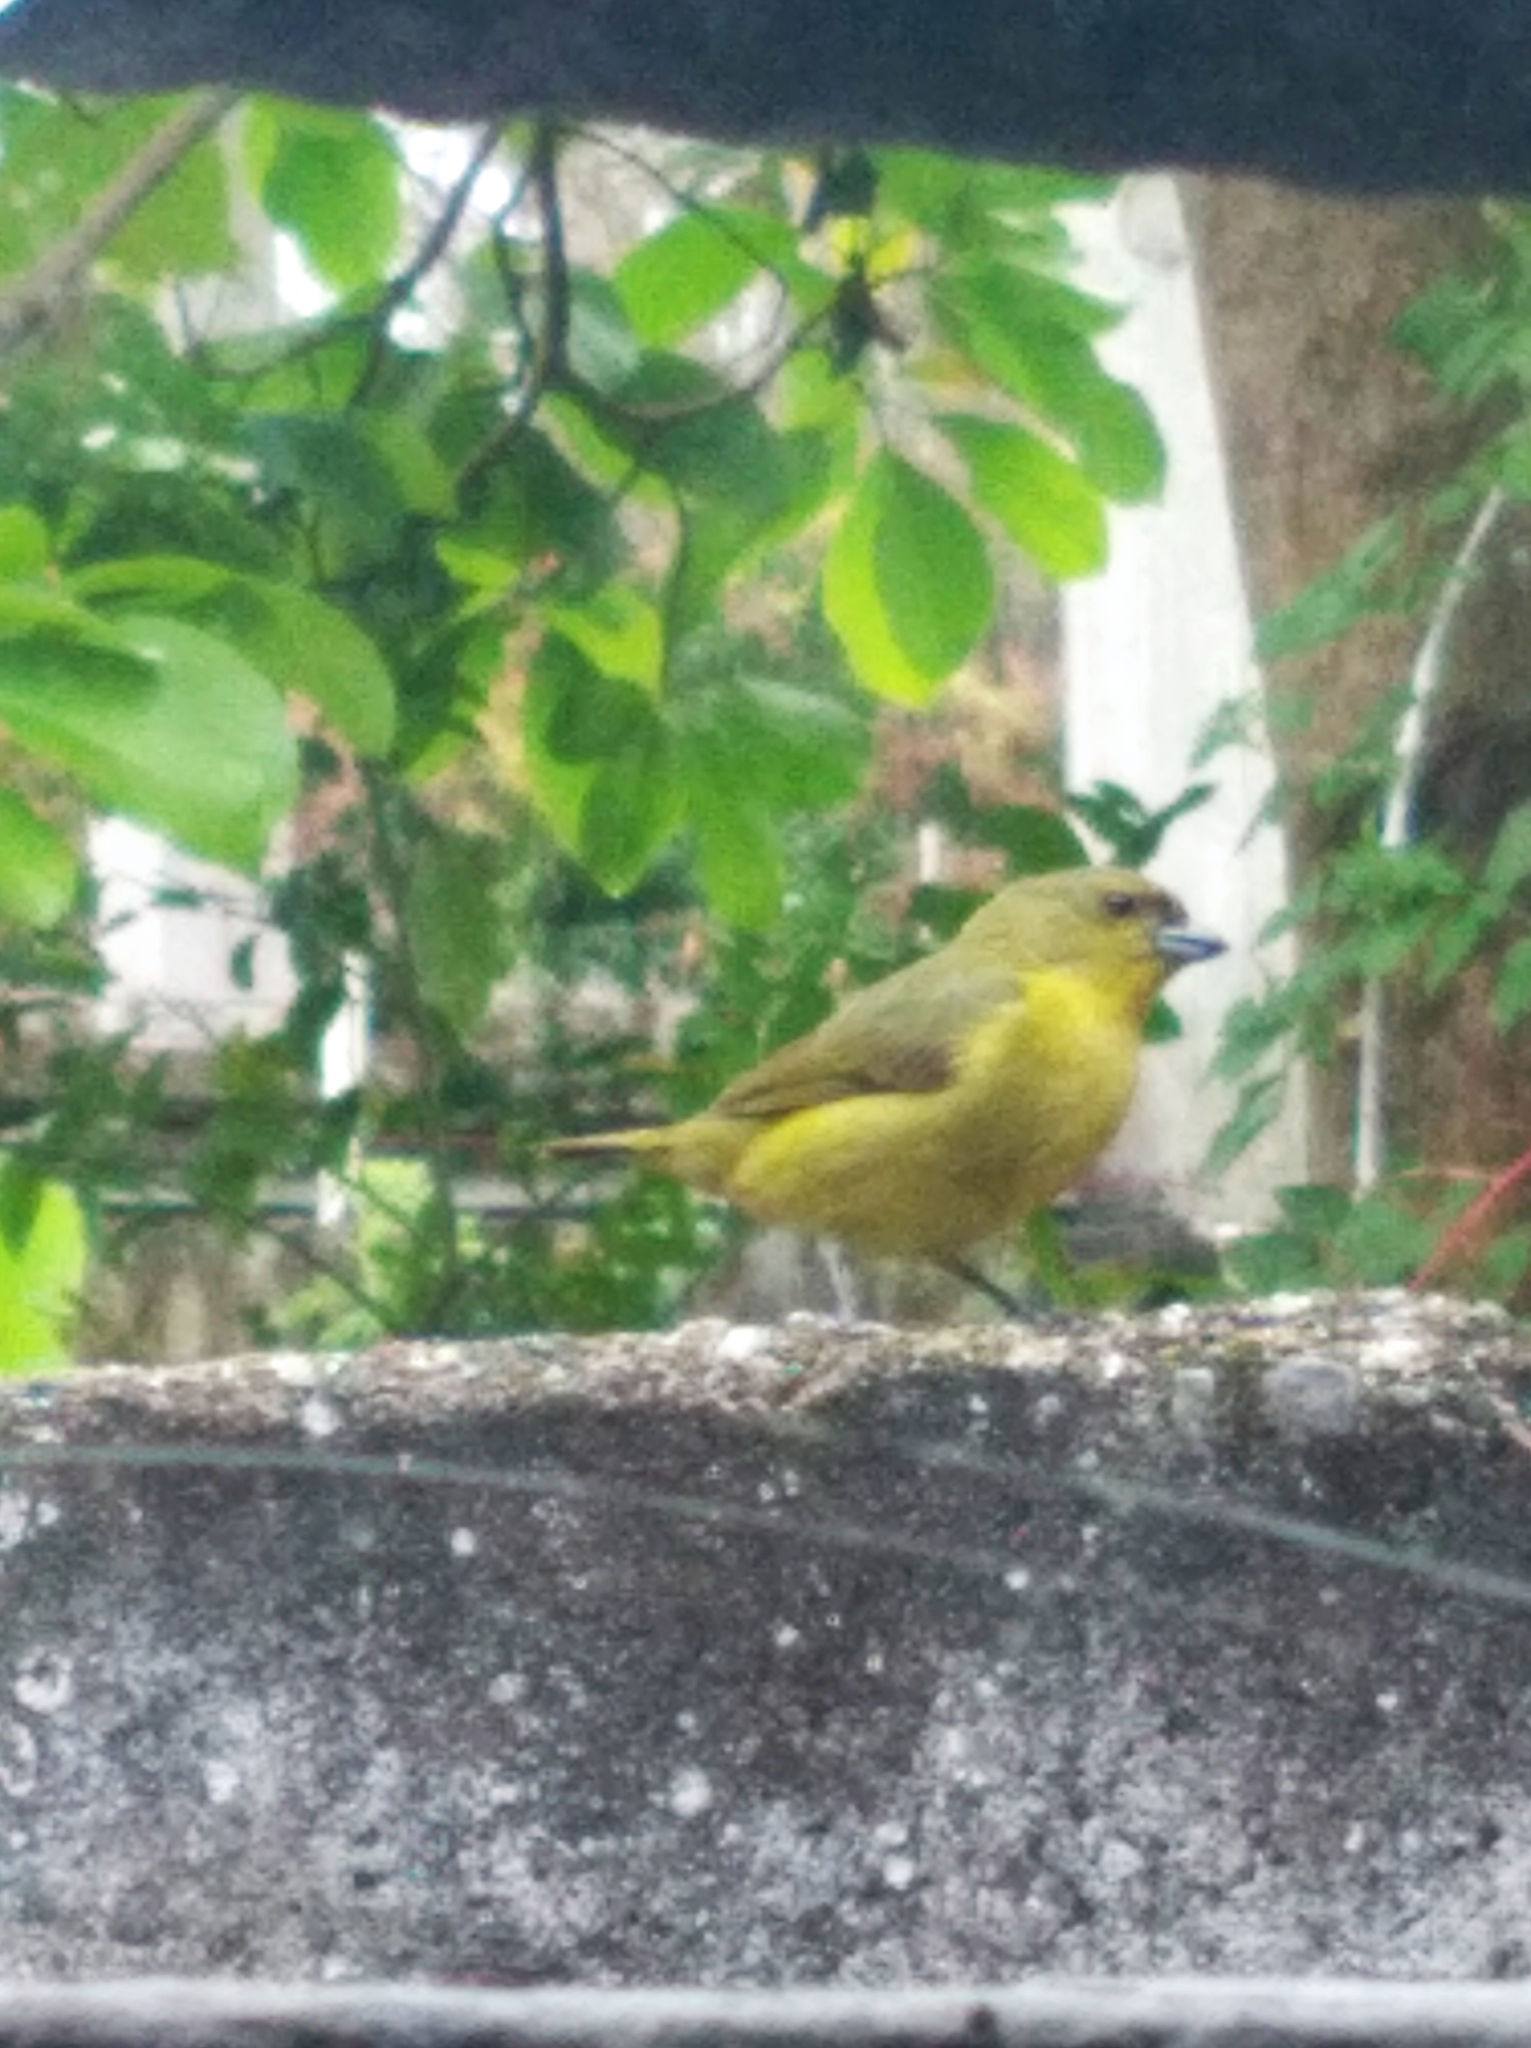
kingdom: Animalia
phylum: Chordata
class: Aves
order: Passeriformes
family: Fringillidae
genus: Euphonia
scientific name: Euphonia laniirostris
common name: Thick-billed euphonia
